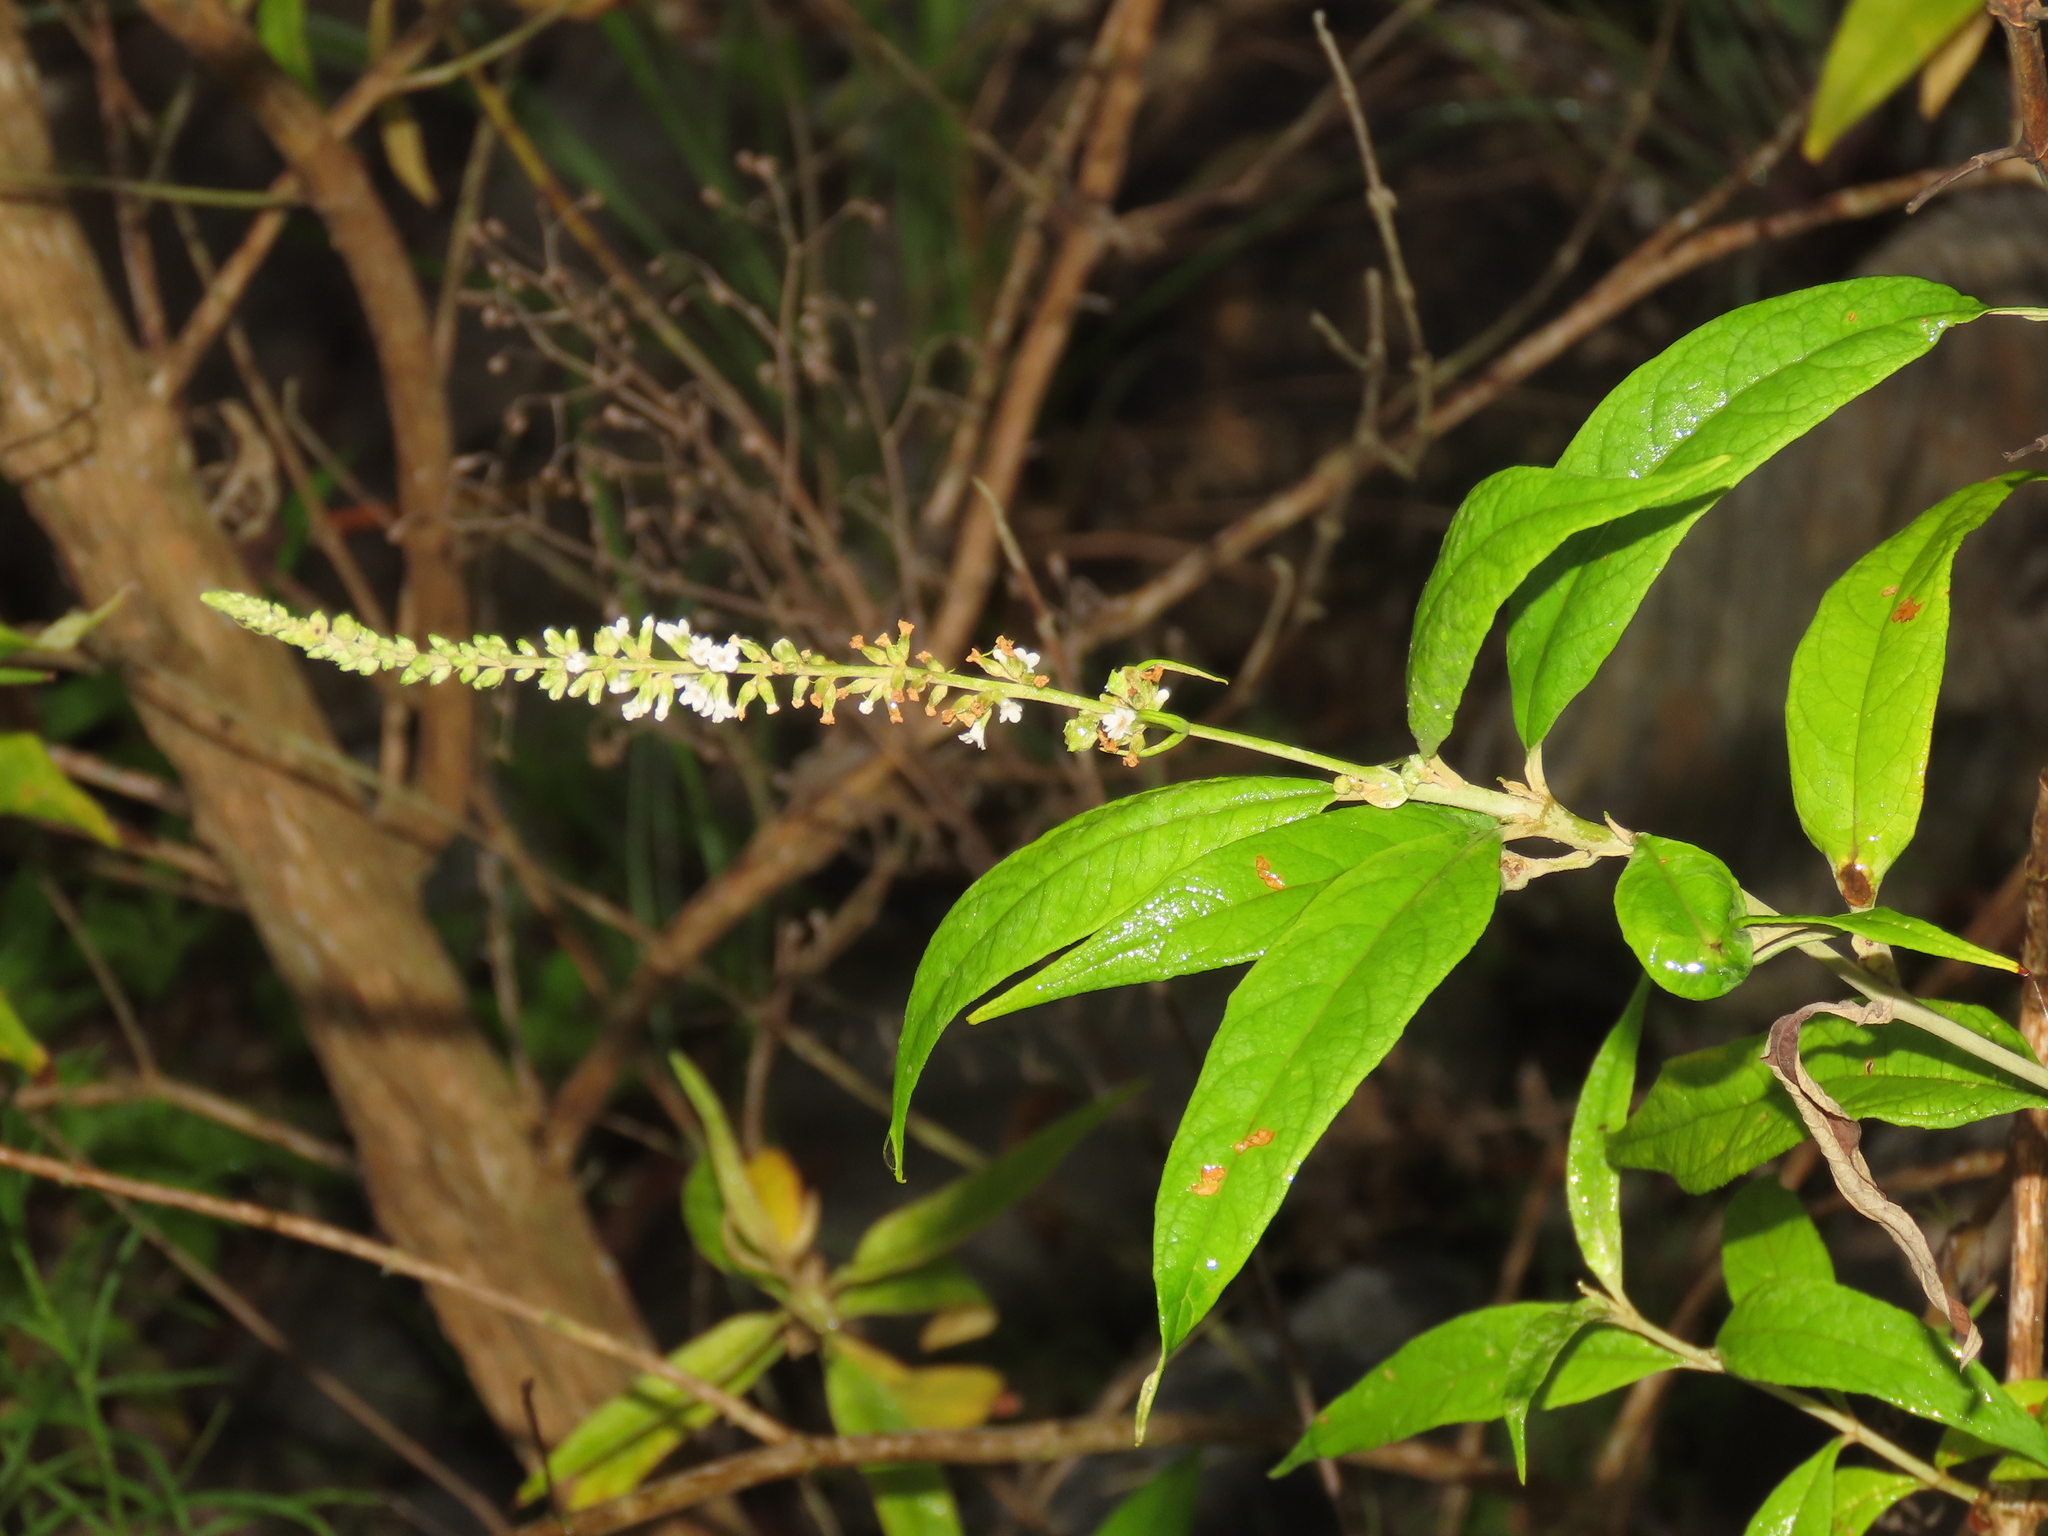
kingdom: Plantae
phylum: Tracheophyta
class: Magnoliopsida
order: Lamiales
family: Scrophulariaceae
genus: Buddleja
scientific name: Buddleja asiatica
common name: Dog tail
